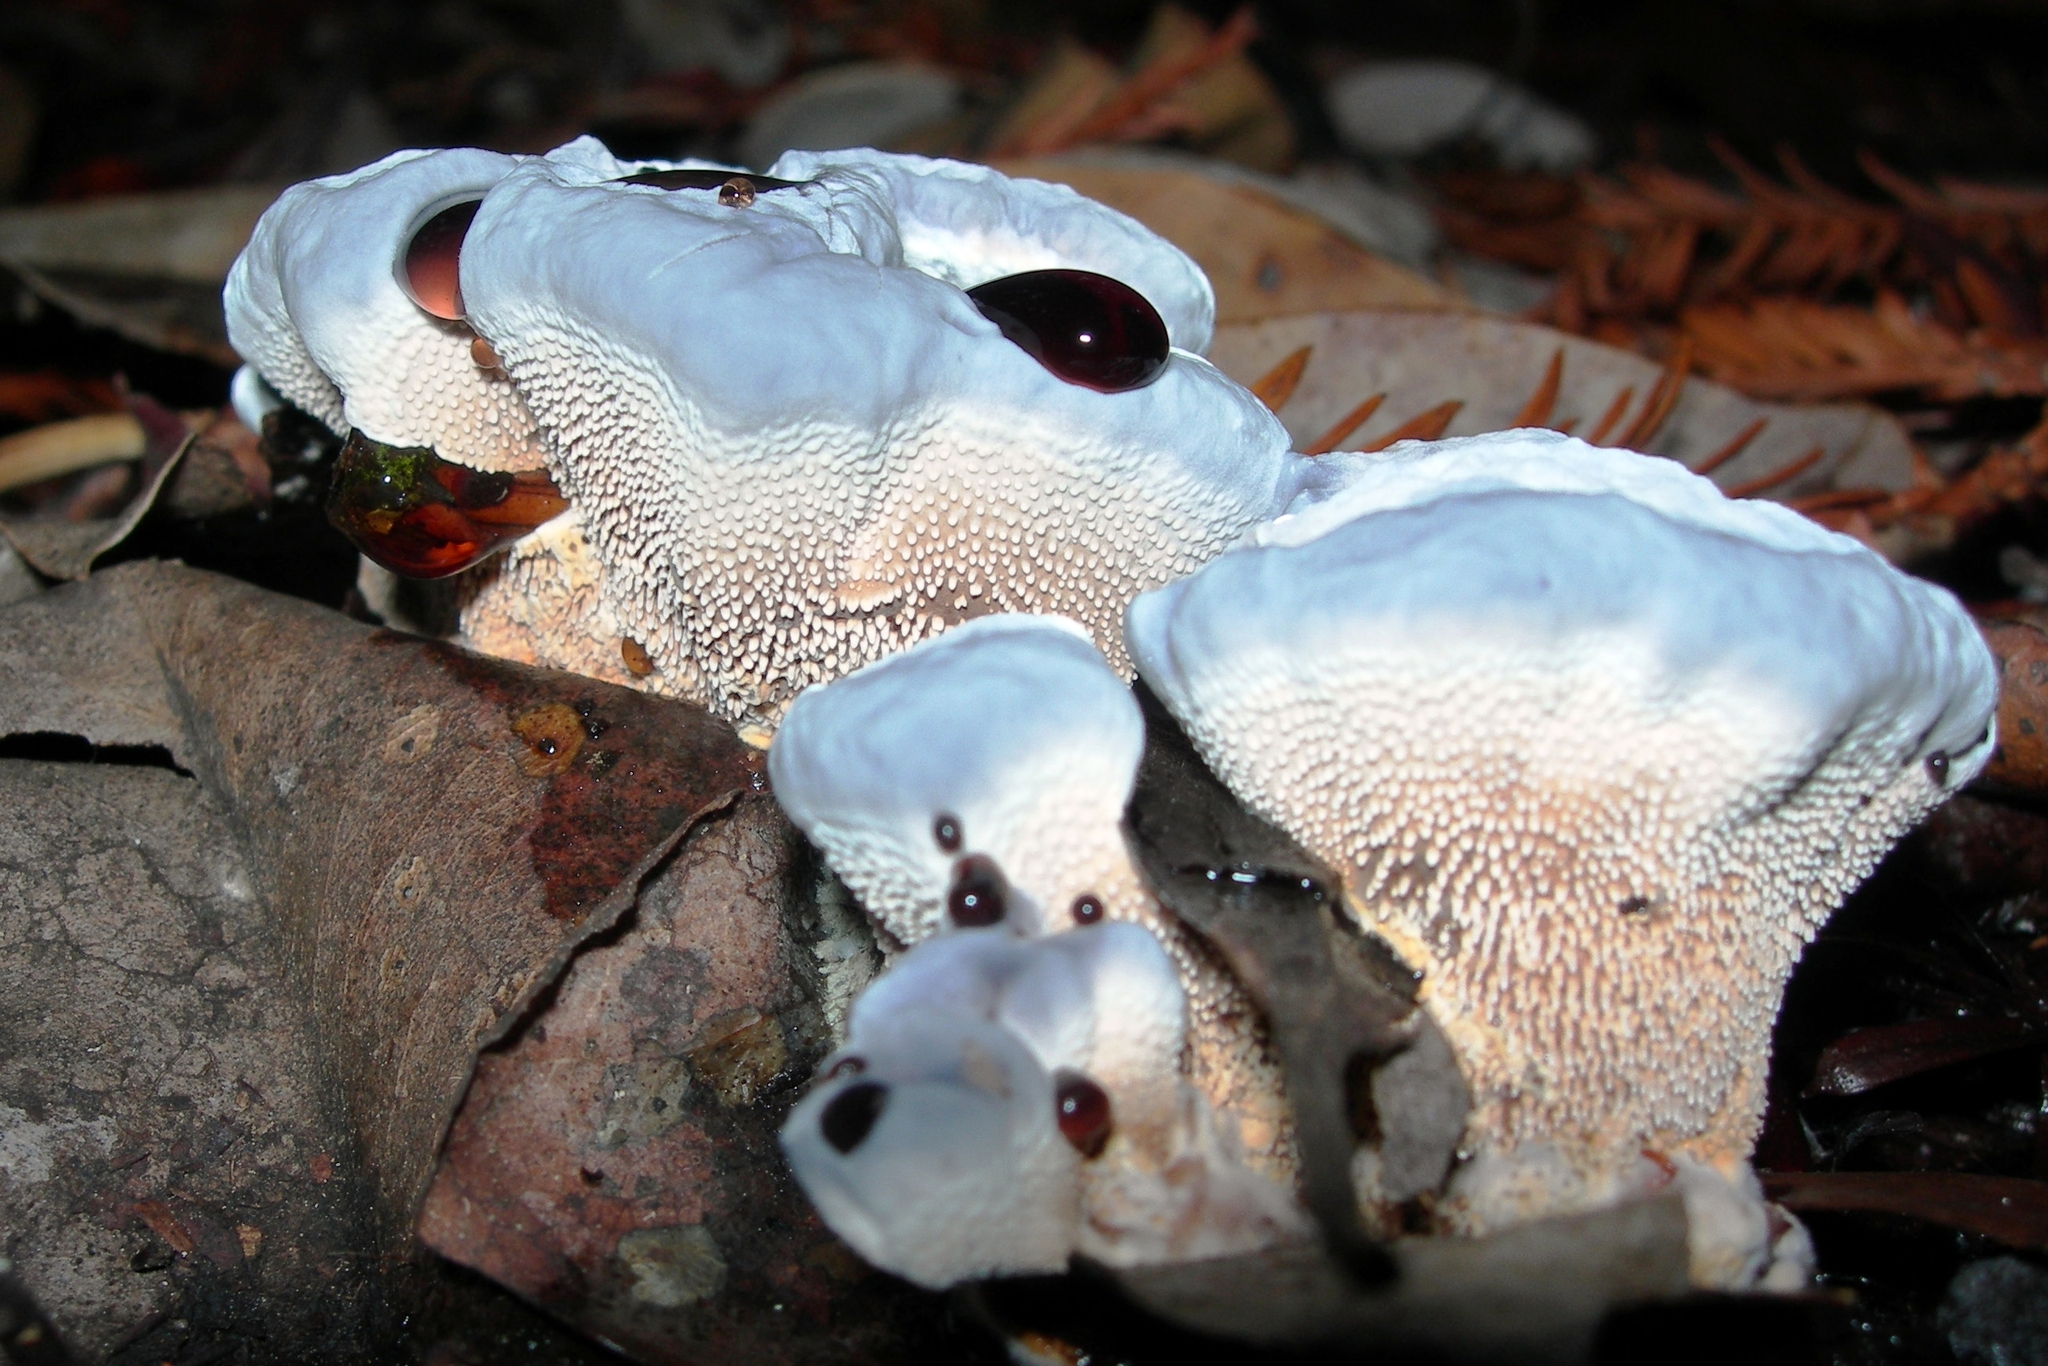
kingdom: Fungi
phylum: Basidiomycota
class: Agaricomycetes
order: Thelephorales
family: Bankeraceae
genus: Hydnellum
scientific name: Hydnellum caeruleum
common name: Blue corky spine fungus
